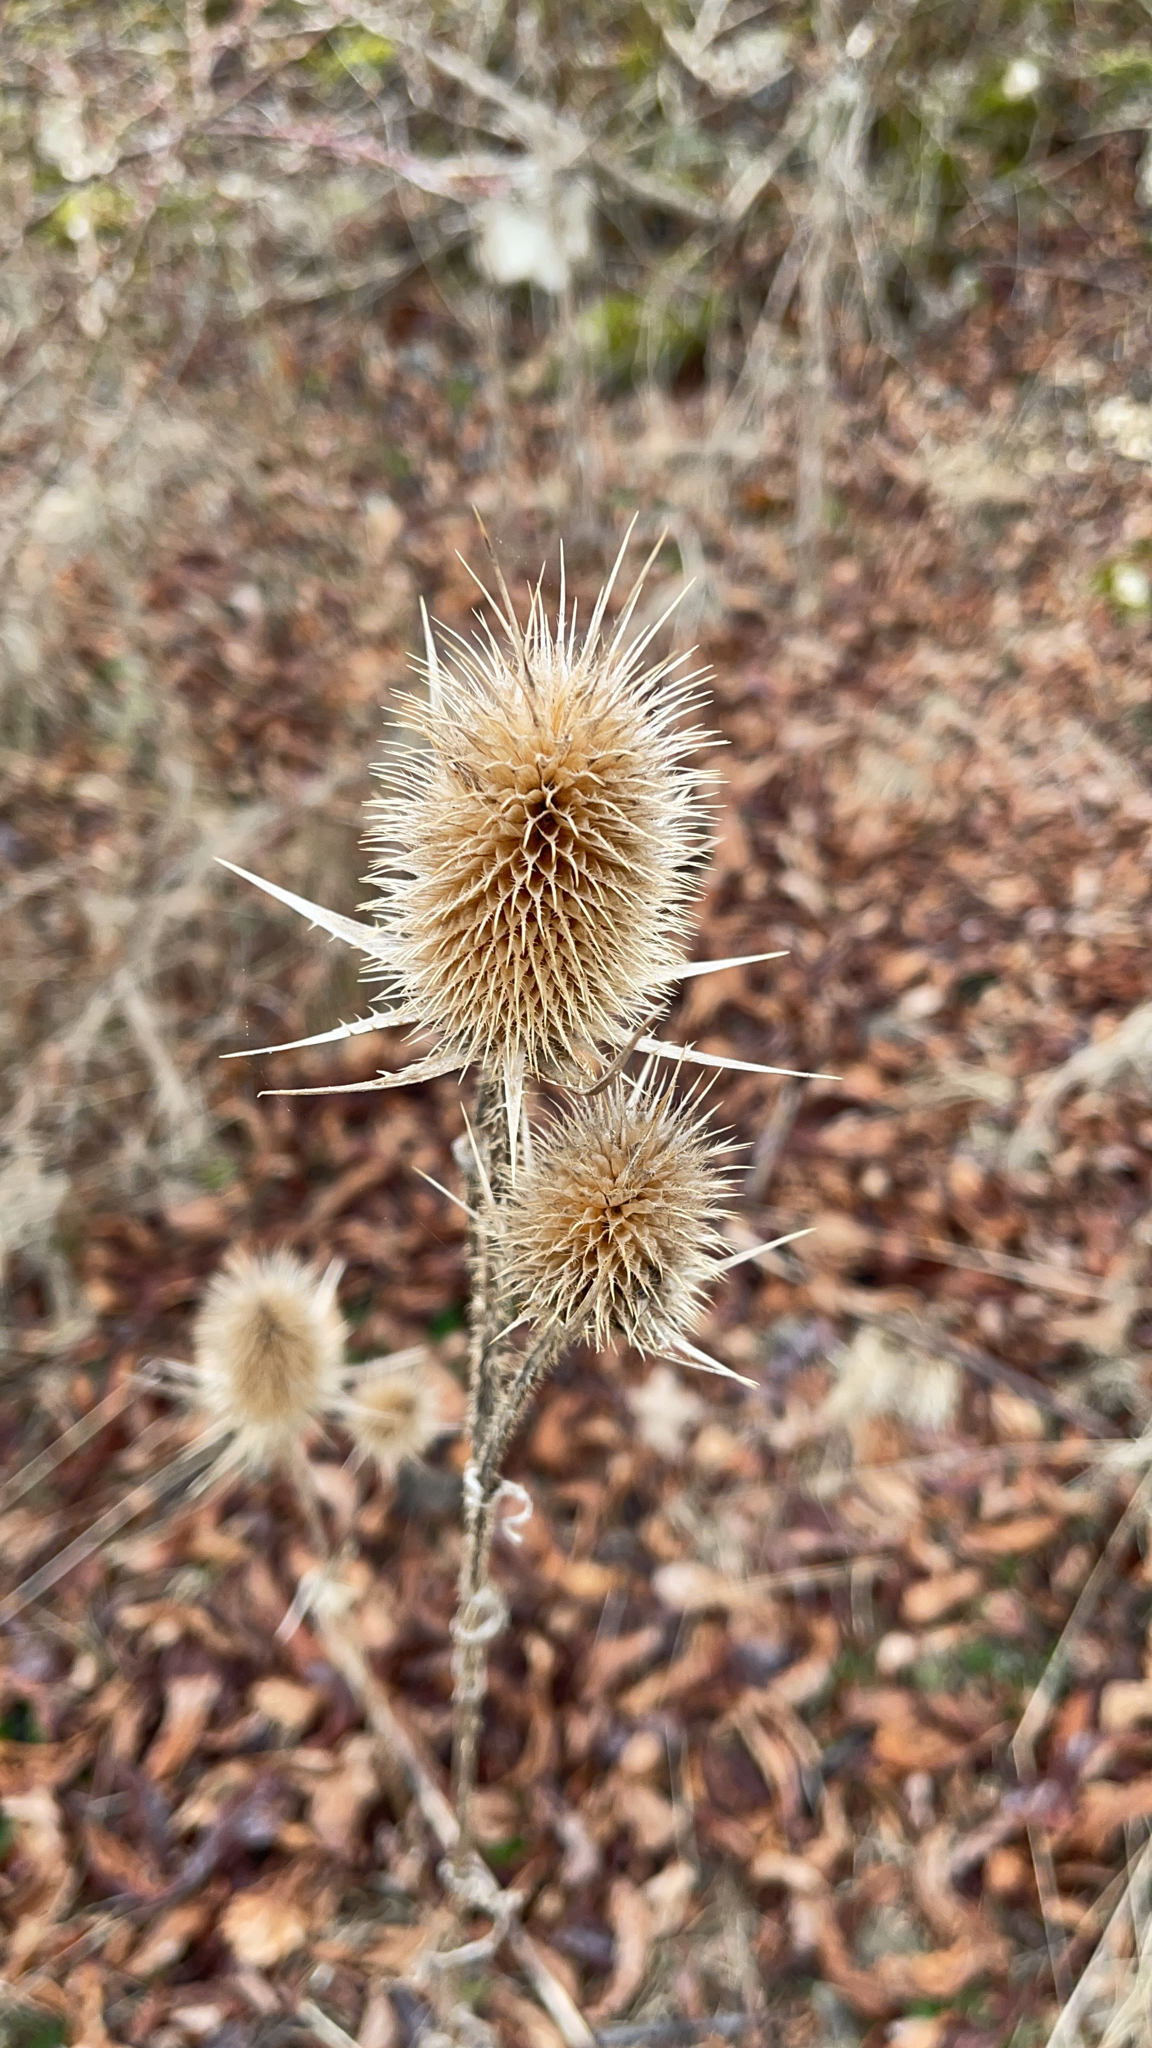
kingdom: Plantae
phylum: Tracheophyta
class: Magnoliopsida
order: Dipsacales
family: Caprifoliaceae
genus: Dipsacus
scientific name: Dipsacus laciniatus
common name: Cut-leaved teasel
